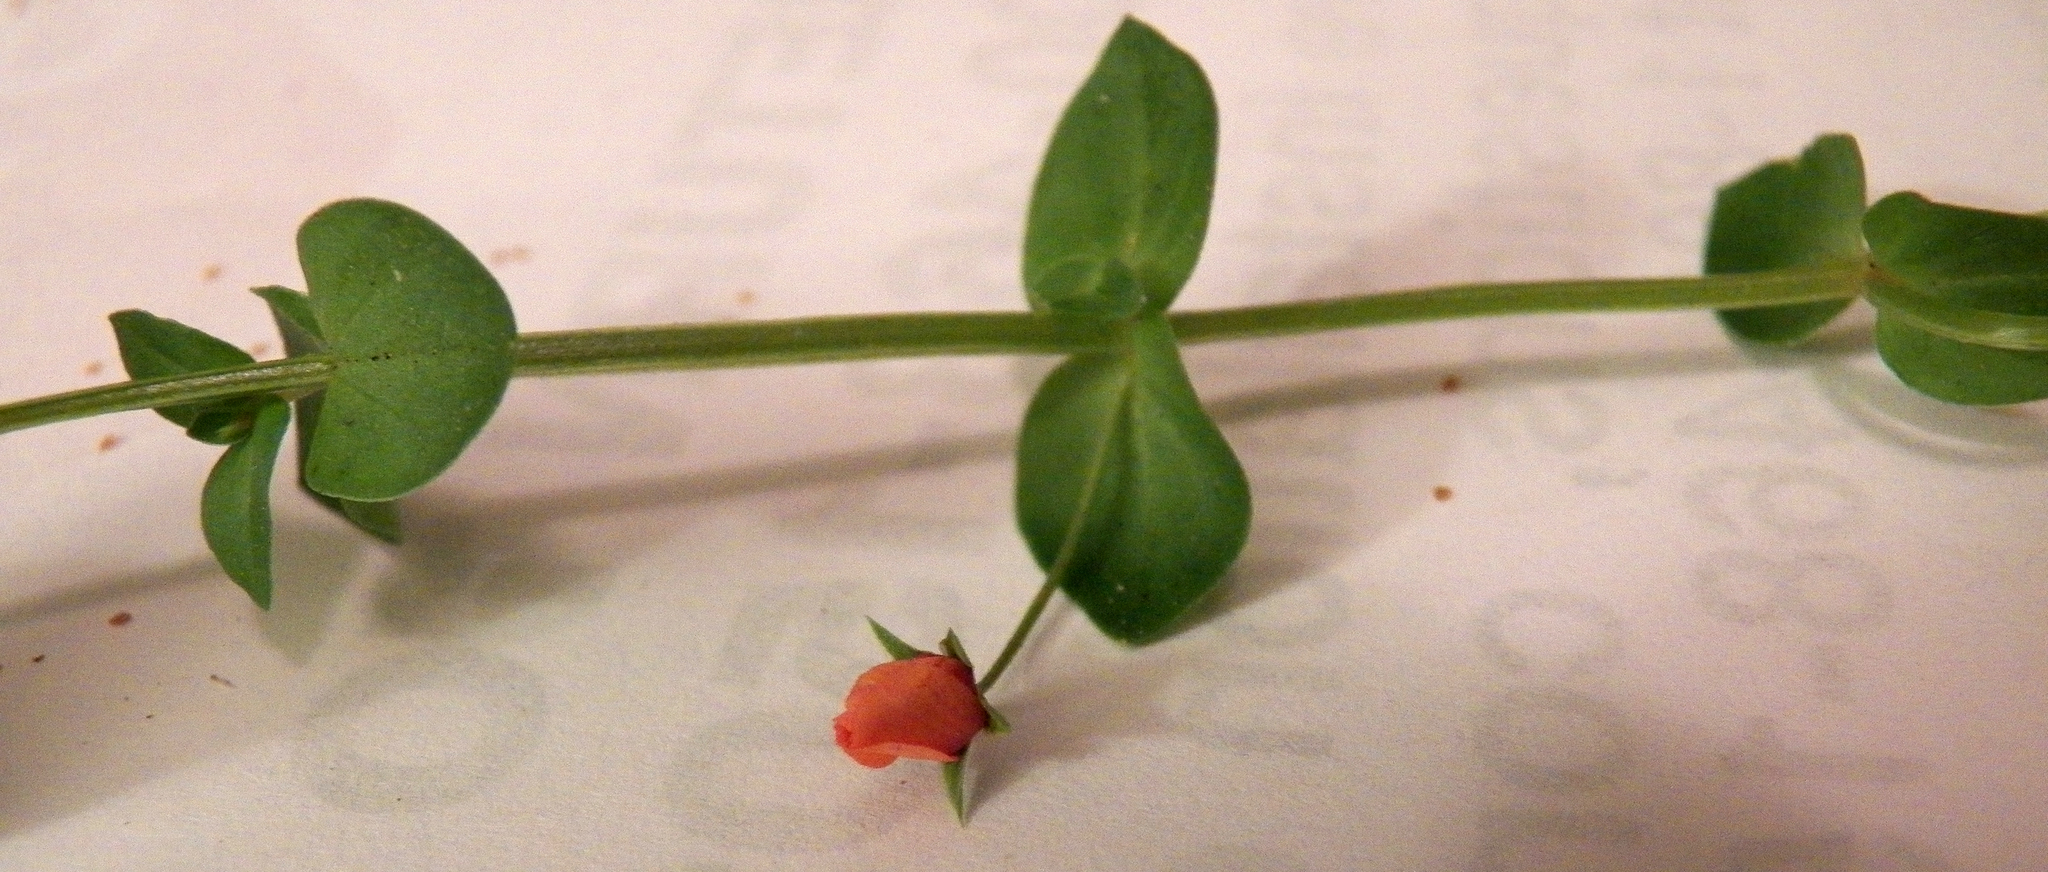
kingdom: Plantae
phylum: Tracheophyta
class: Magnoliopsida
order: Ericales
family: Primulaceae
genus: Lysimachia
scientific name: Lysimachia arvensis
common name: Scarlet pimpernel
